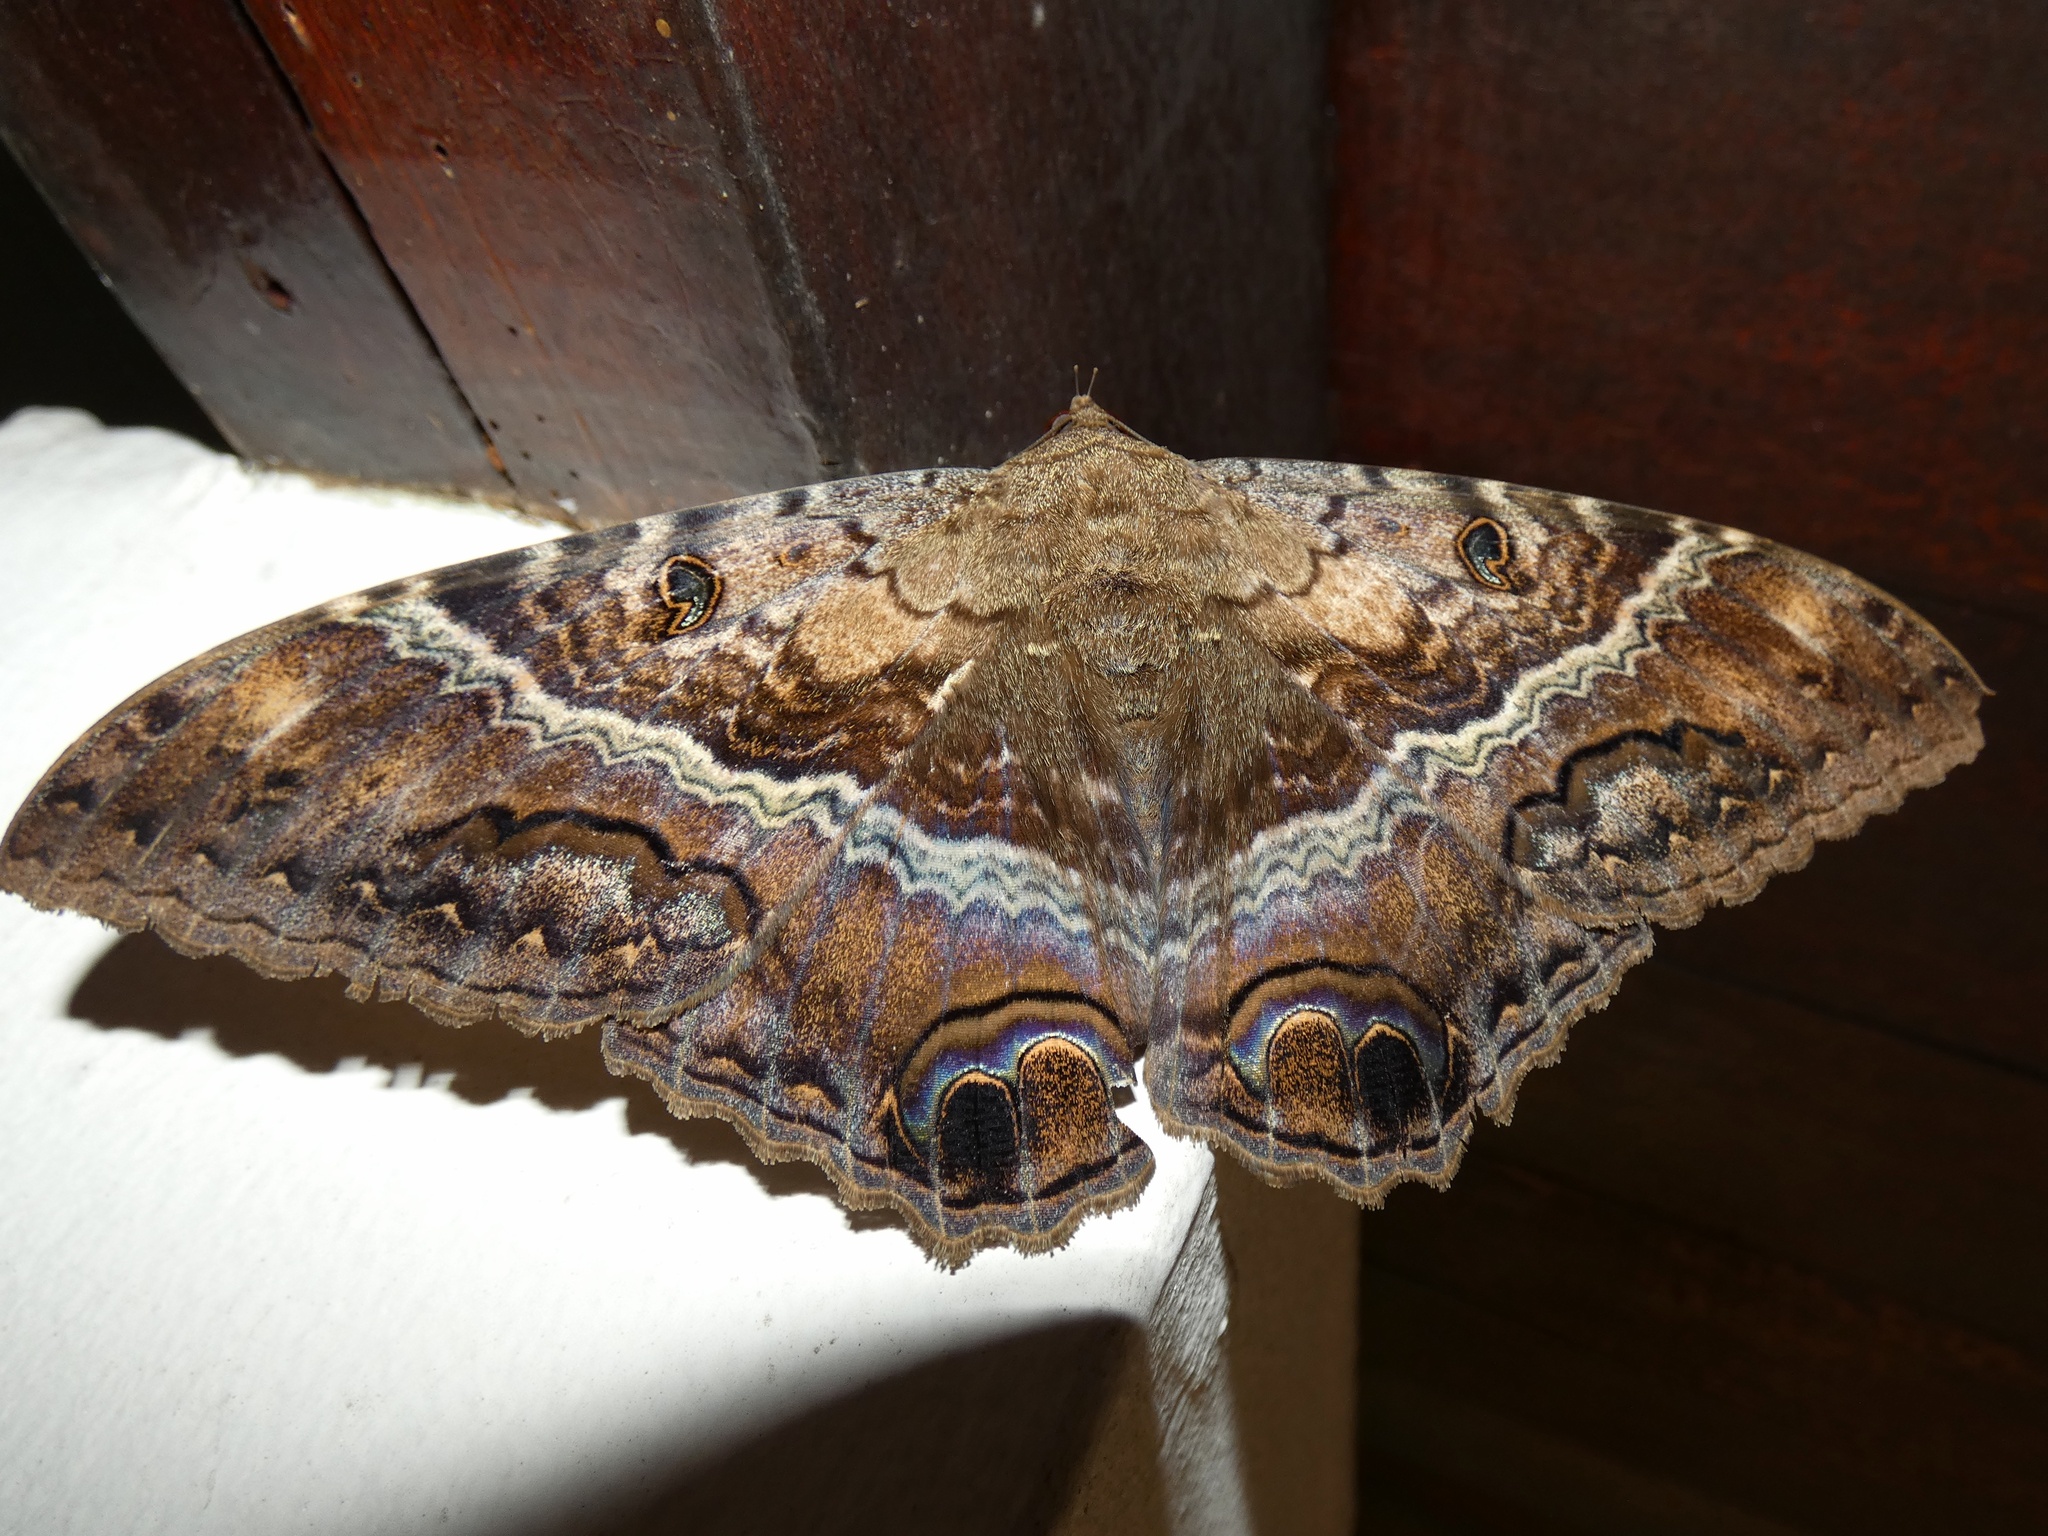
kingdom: Animalia
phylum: Arthropoda
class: Insecta
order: Lepidoptera
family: Erebidae
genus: Ascalapha
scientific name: Ascalapha odorata
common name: Black witch
